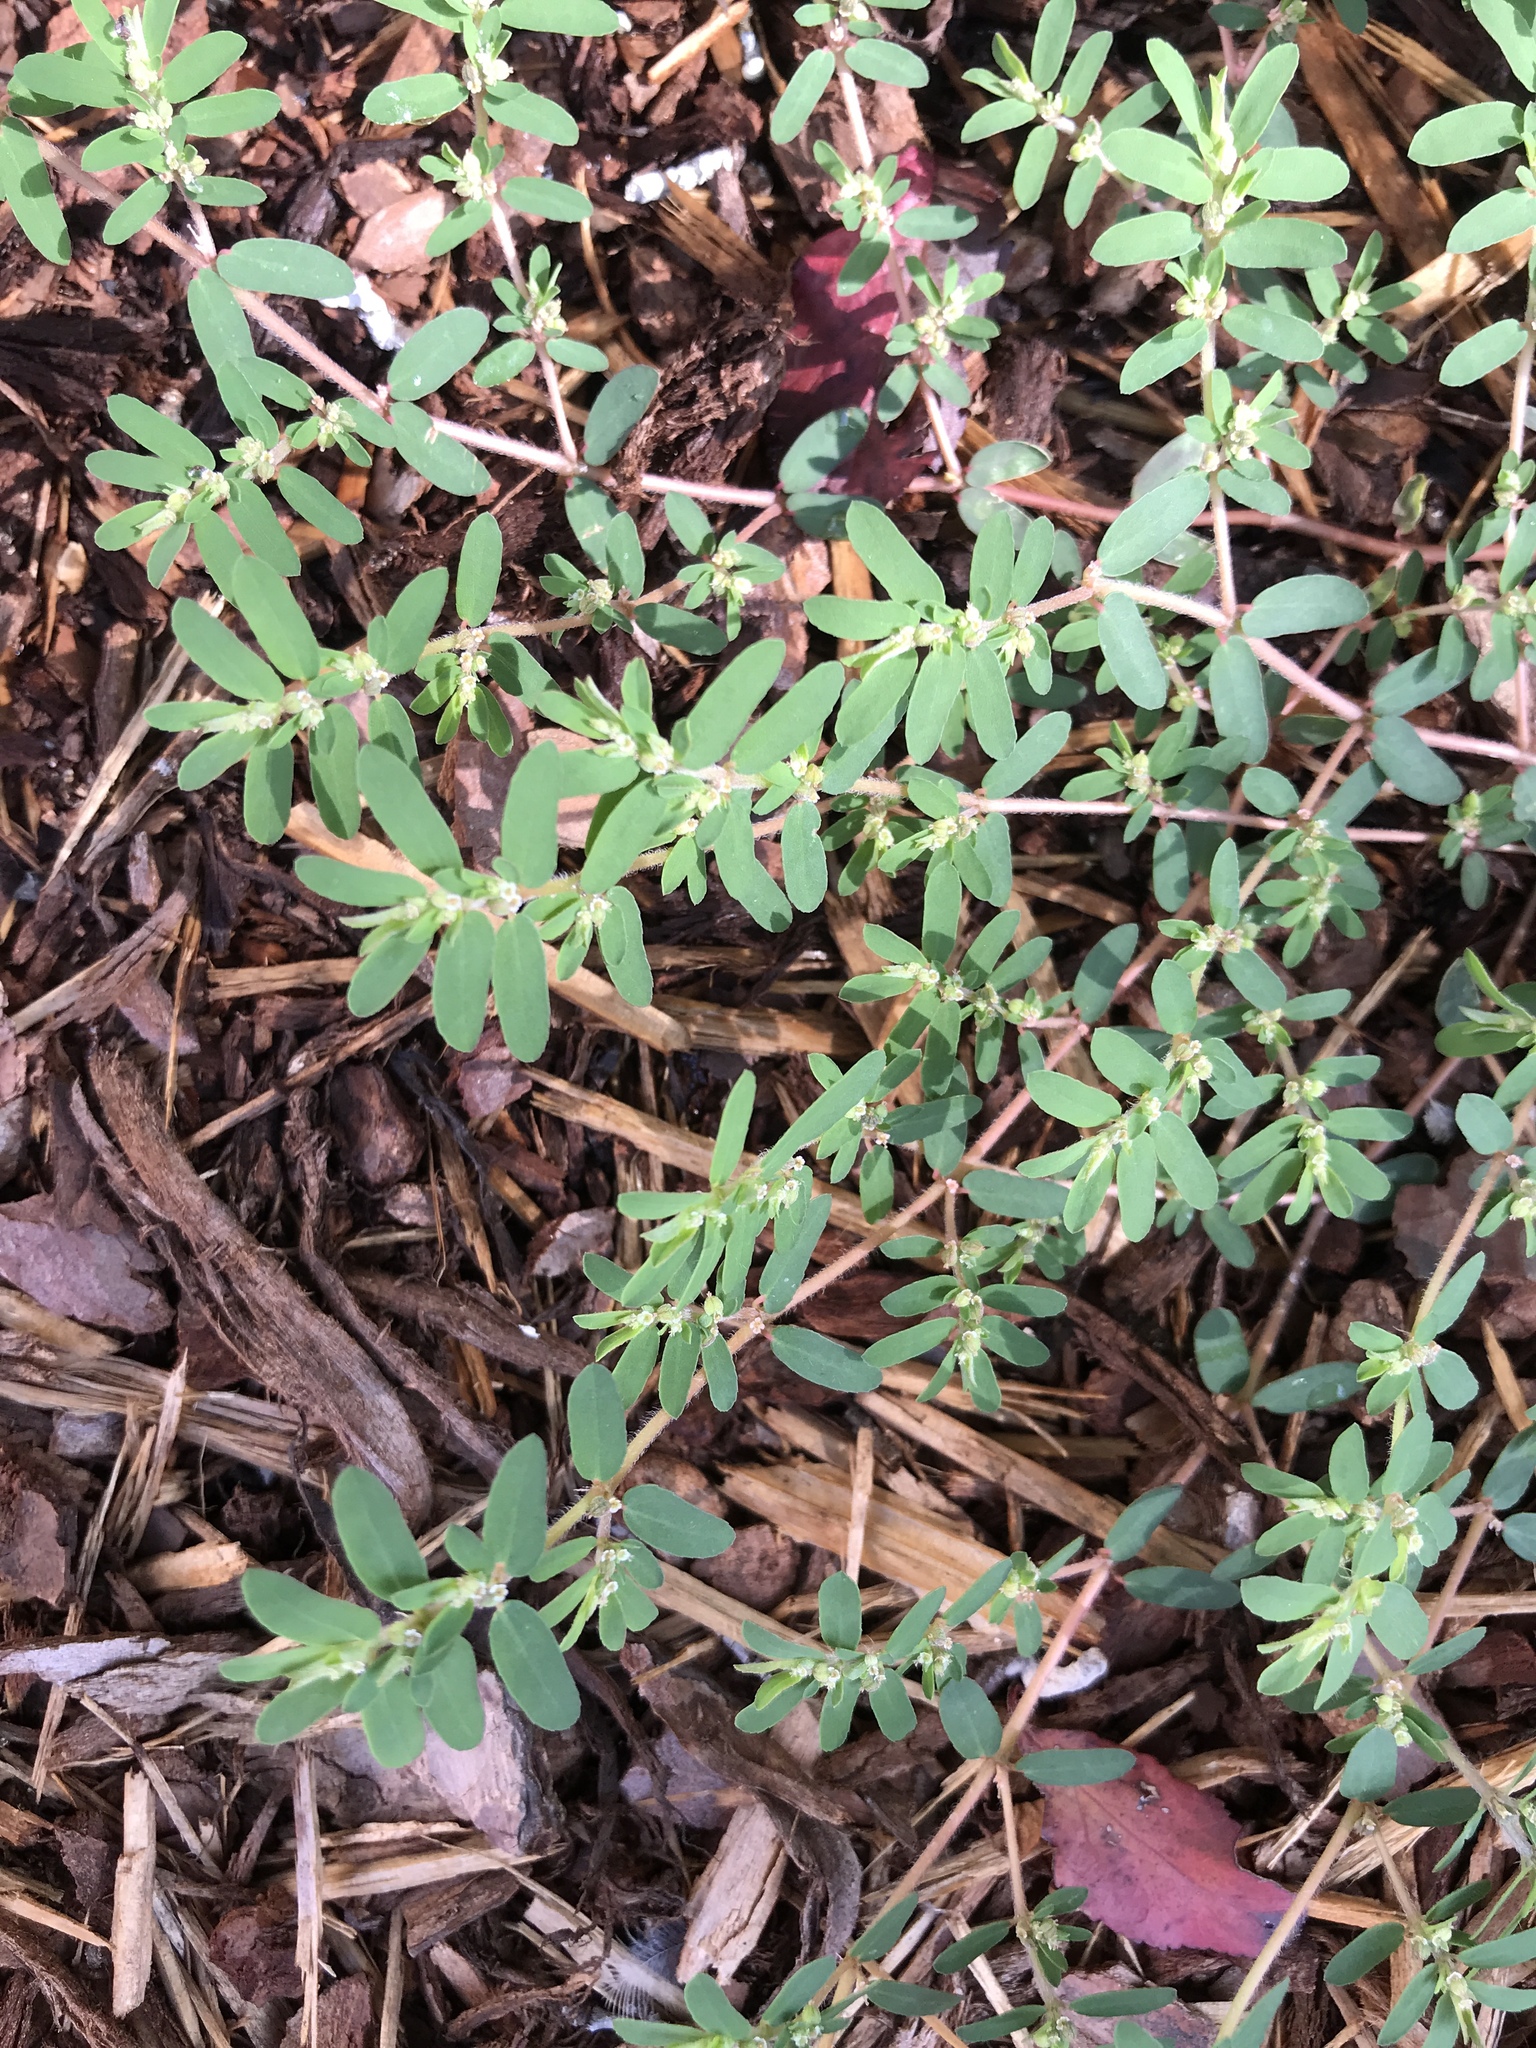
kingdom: Plantae
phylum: Tracheophyta
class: Magnoliopsida
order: Malpighiales
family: Euphorbiaceae
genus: Euphorbia
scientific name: Euphorbia maculata
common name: Spotted spurge
